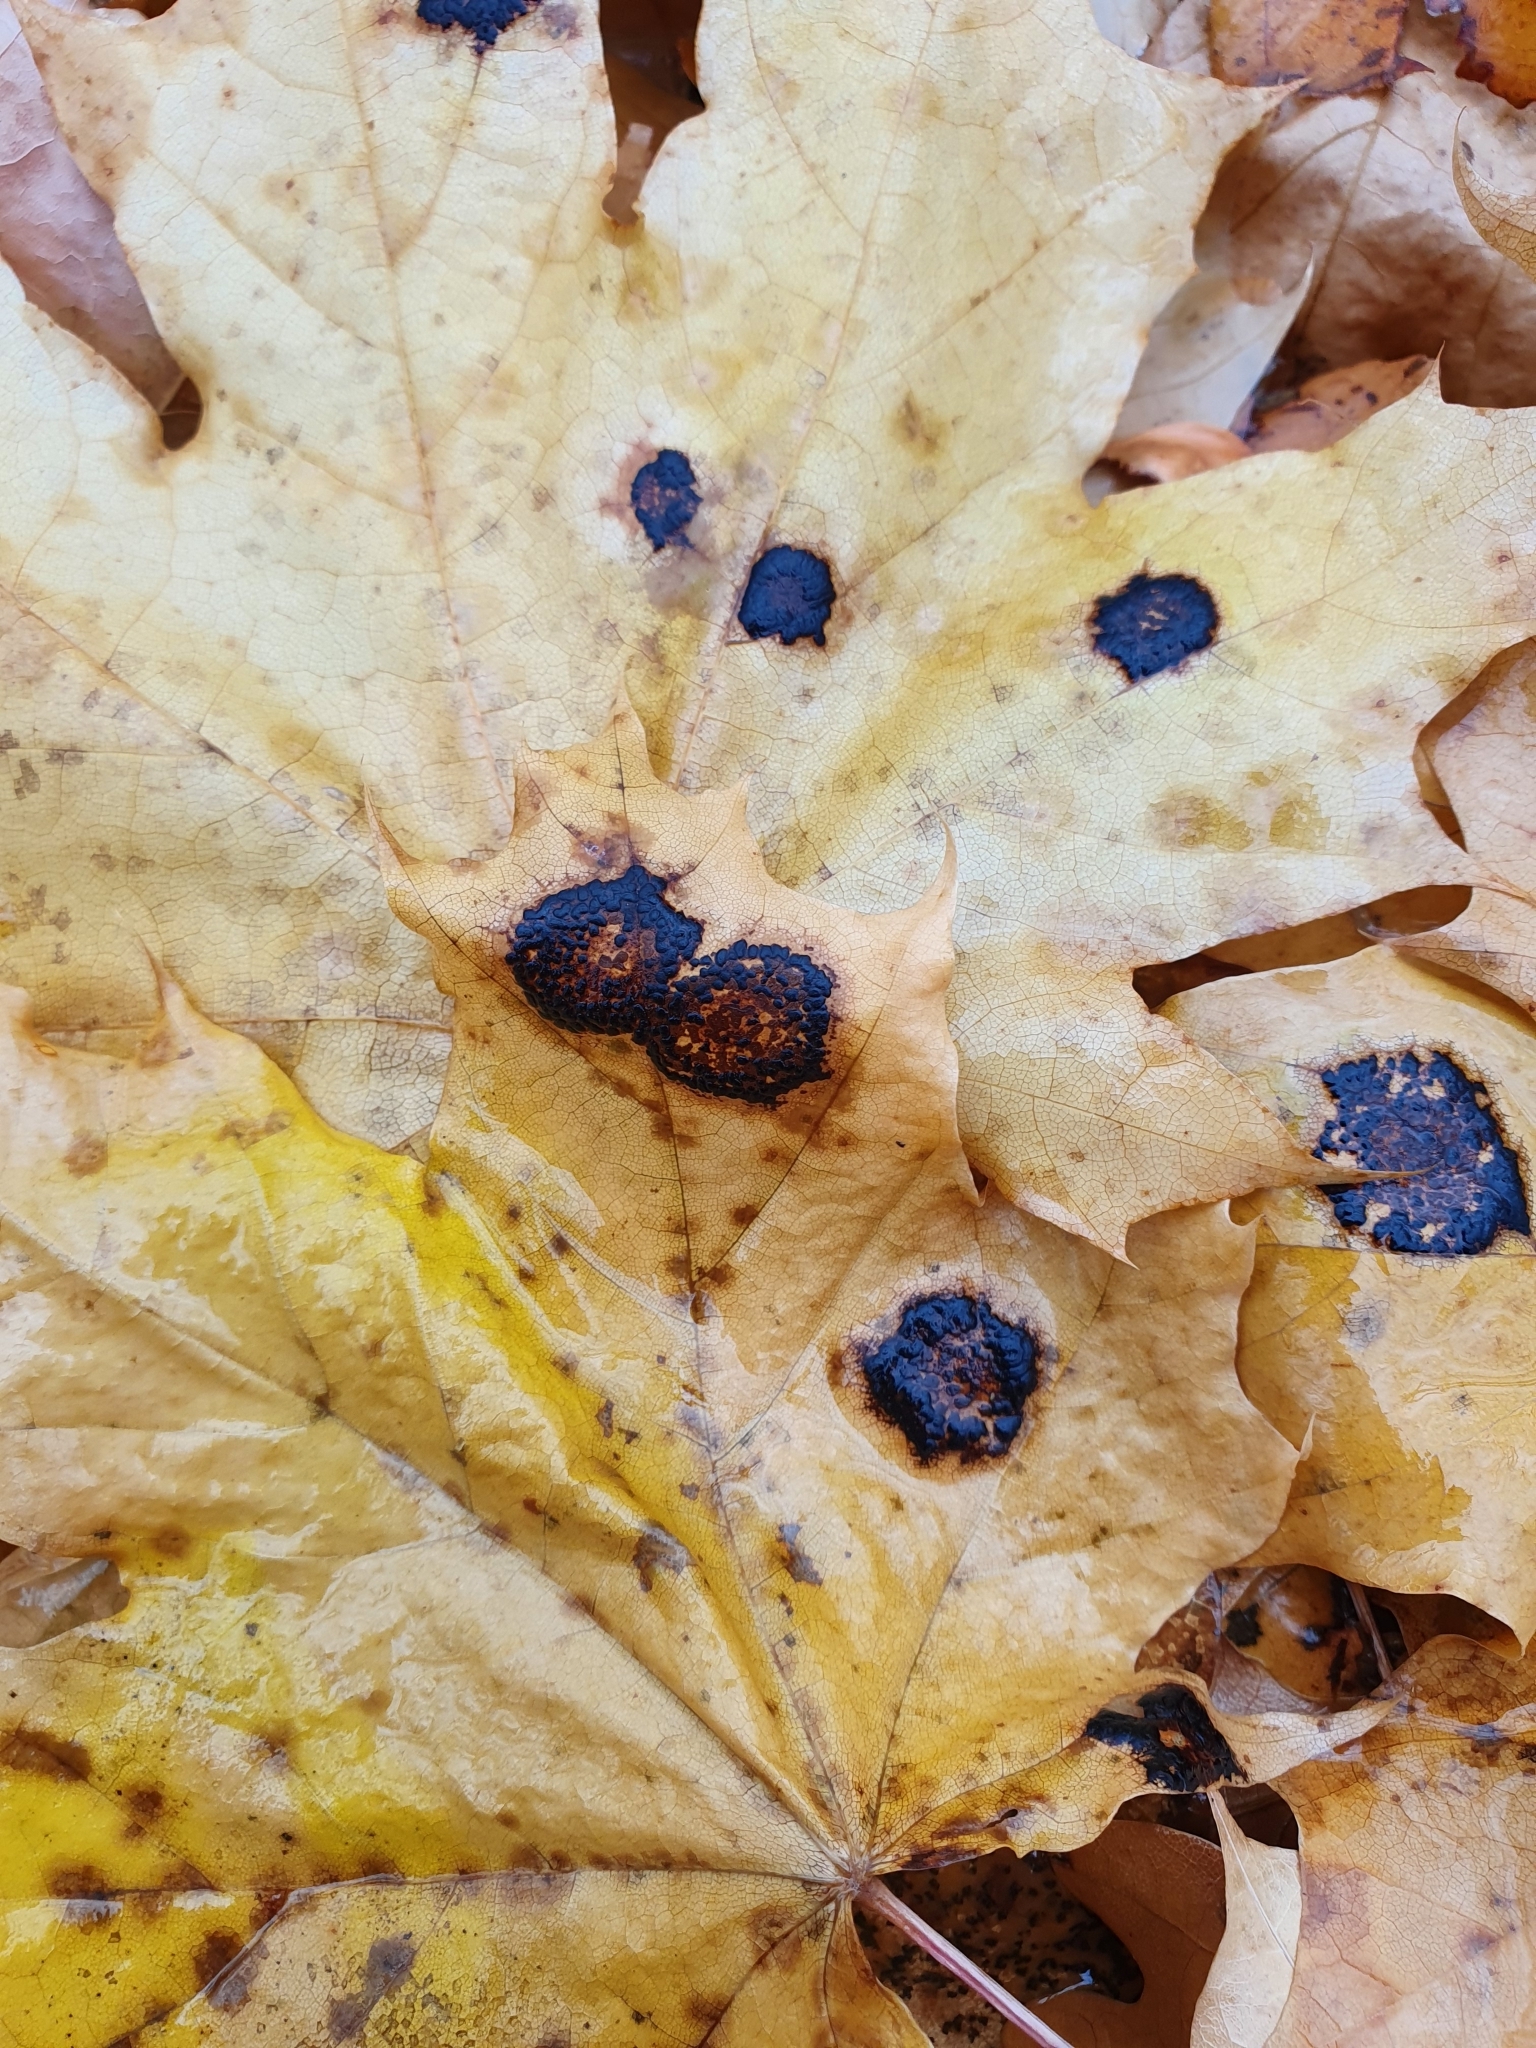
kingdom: Fungi
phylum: Ascomycota
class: Leotiomycetes
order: Rhytismatales
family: Rhytismataceae
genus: Rhytisma
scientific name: Rhytisma acerinum
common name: European tar spot
